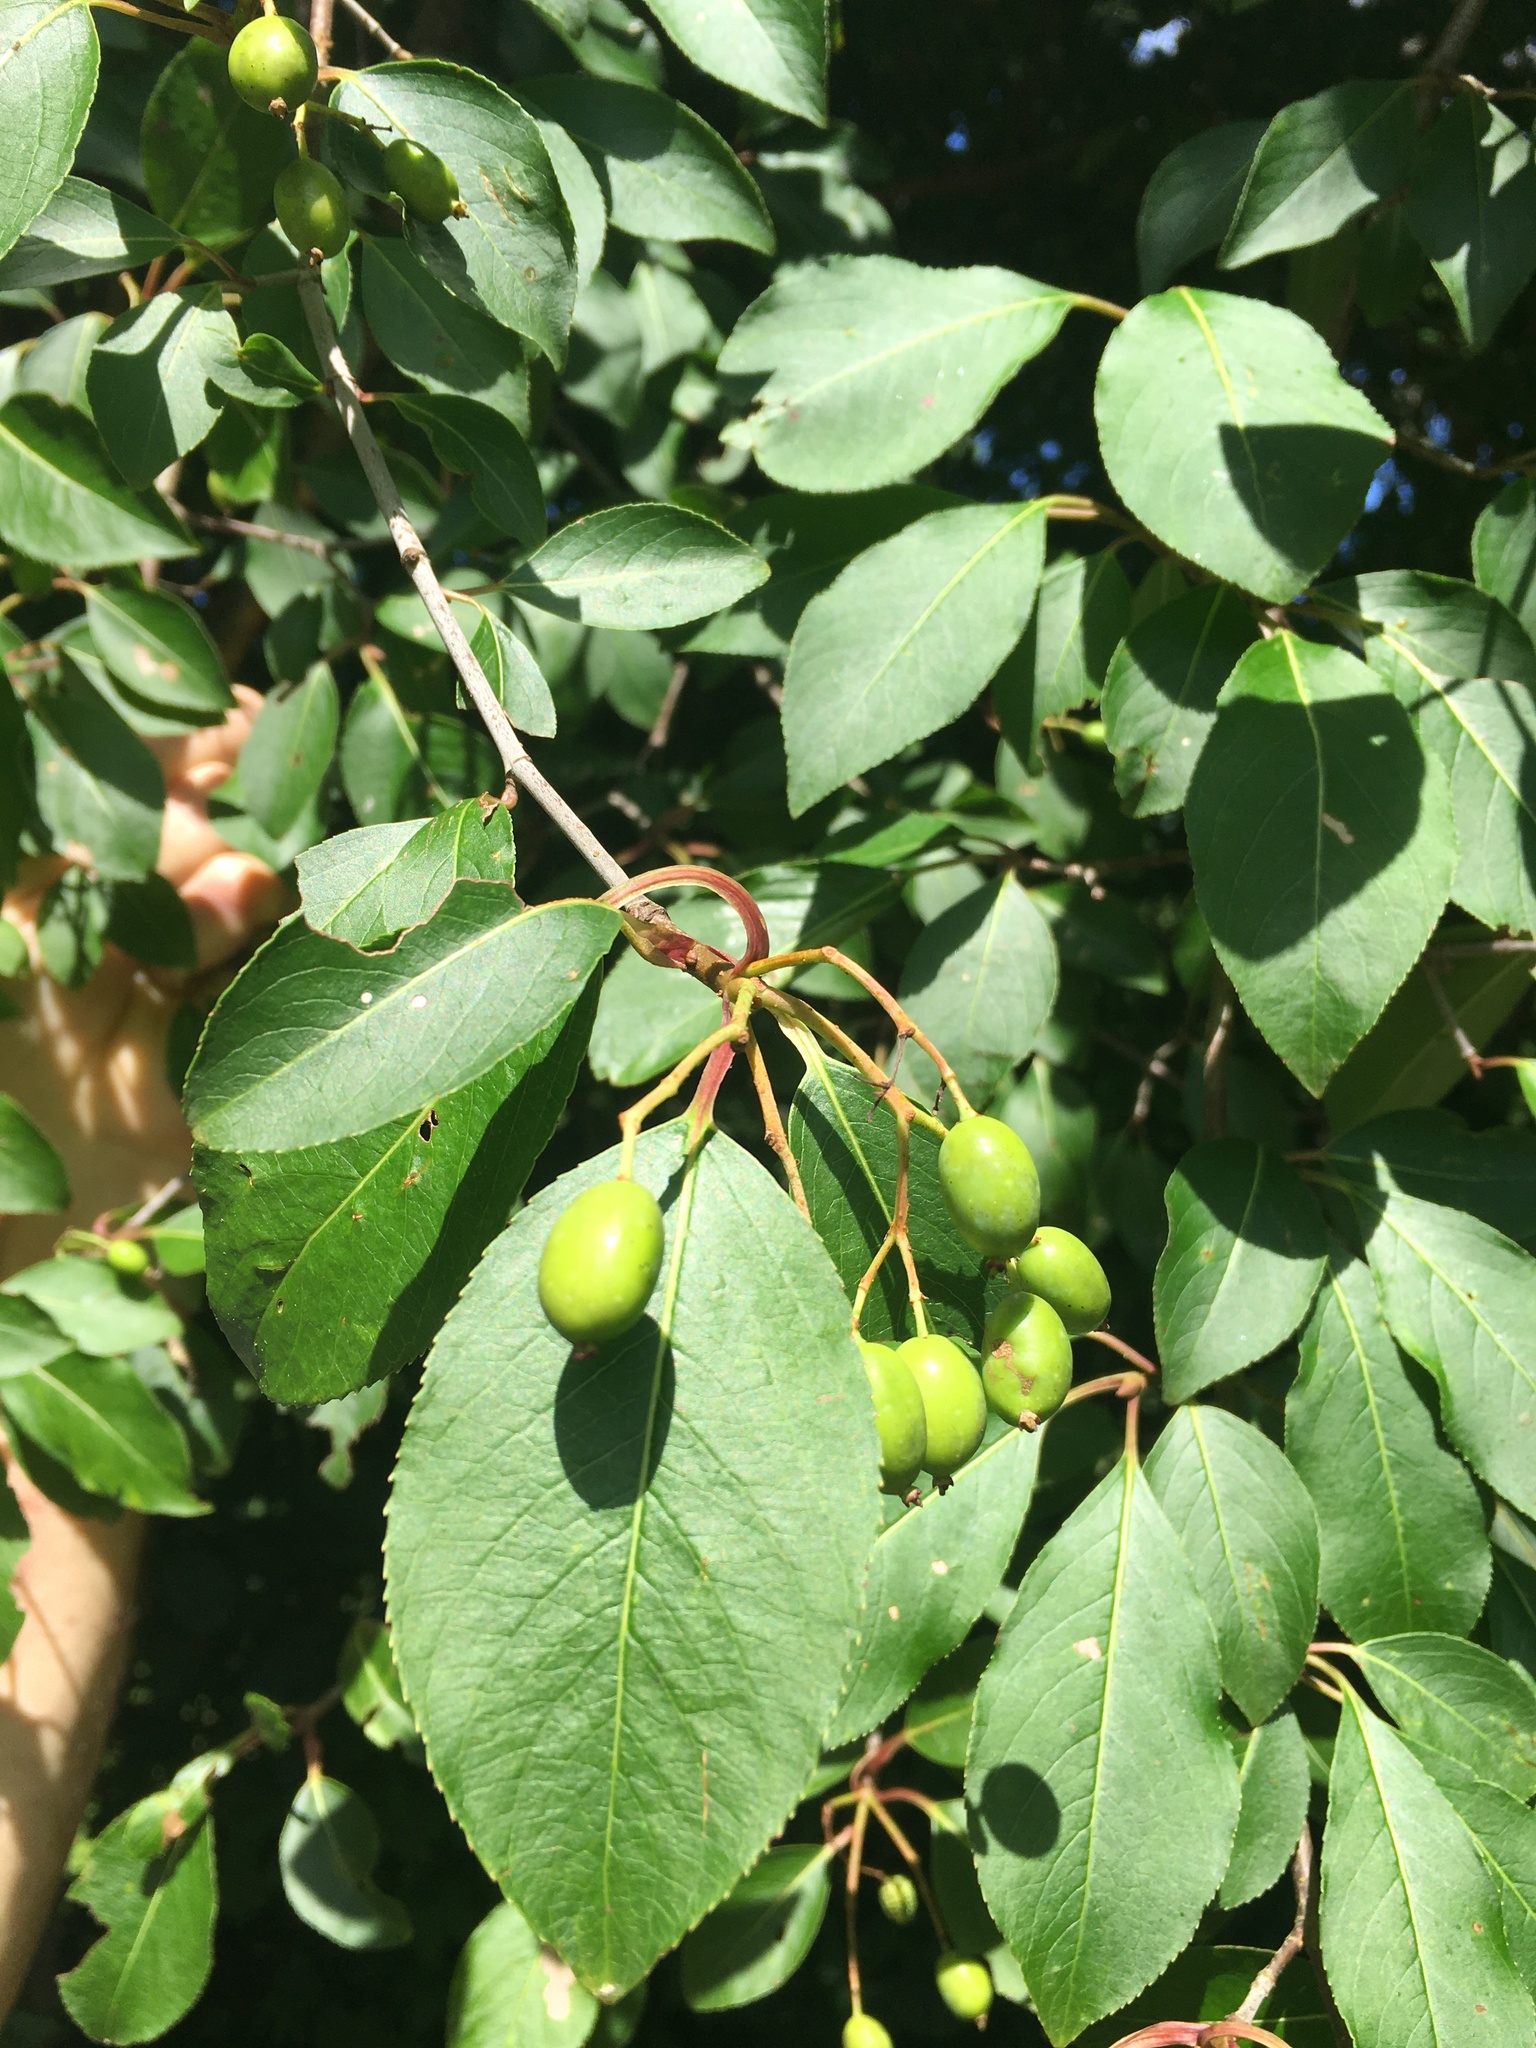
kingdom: Plantae
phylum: Tracheophyta
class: Magnoliopsida
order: Dipsacales
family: Viburnaceae
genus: Viburnum
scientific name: Viburnum prunifolium
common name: Black haw
